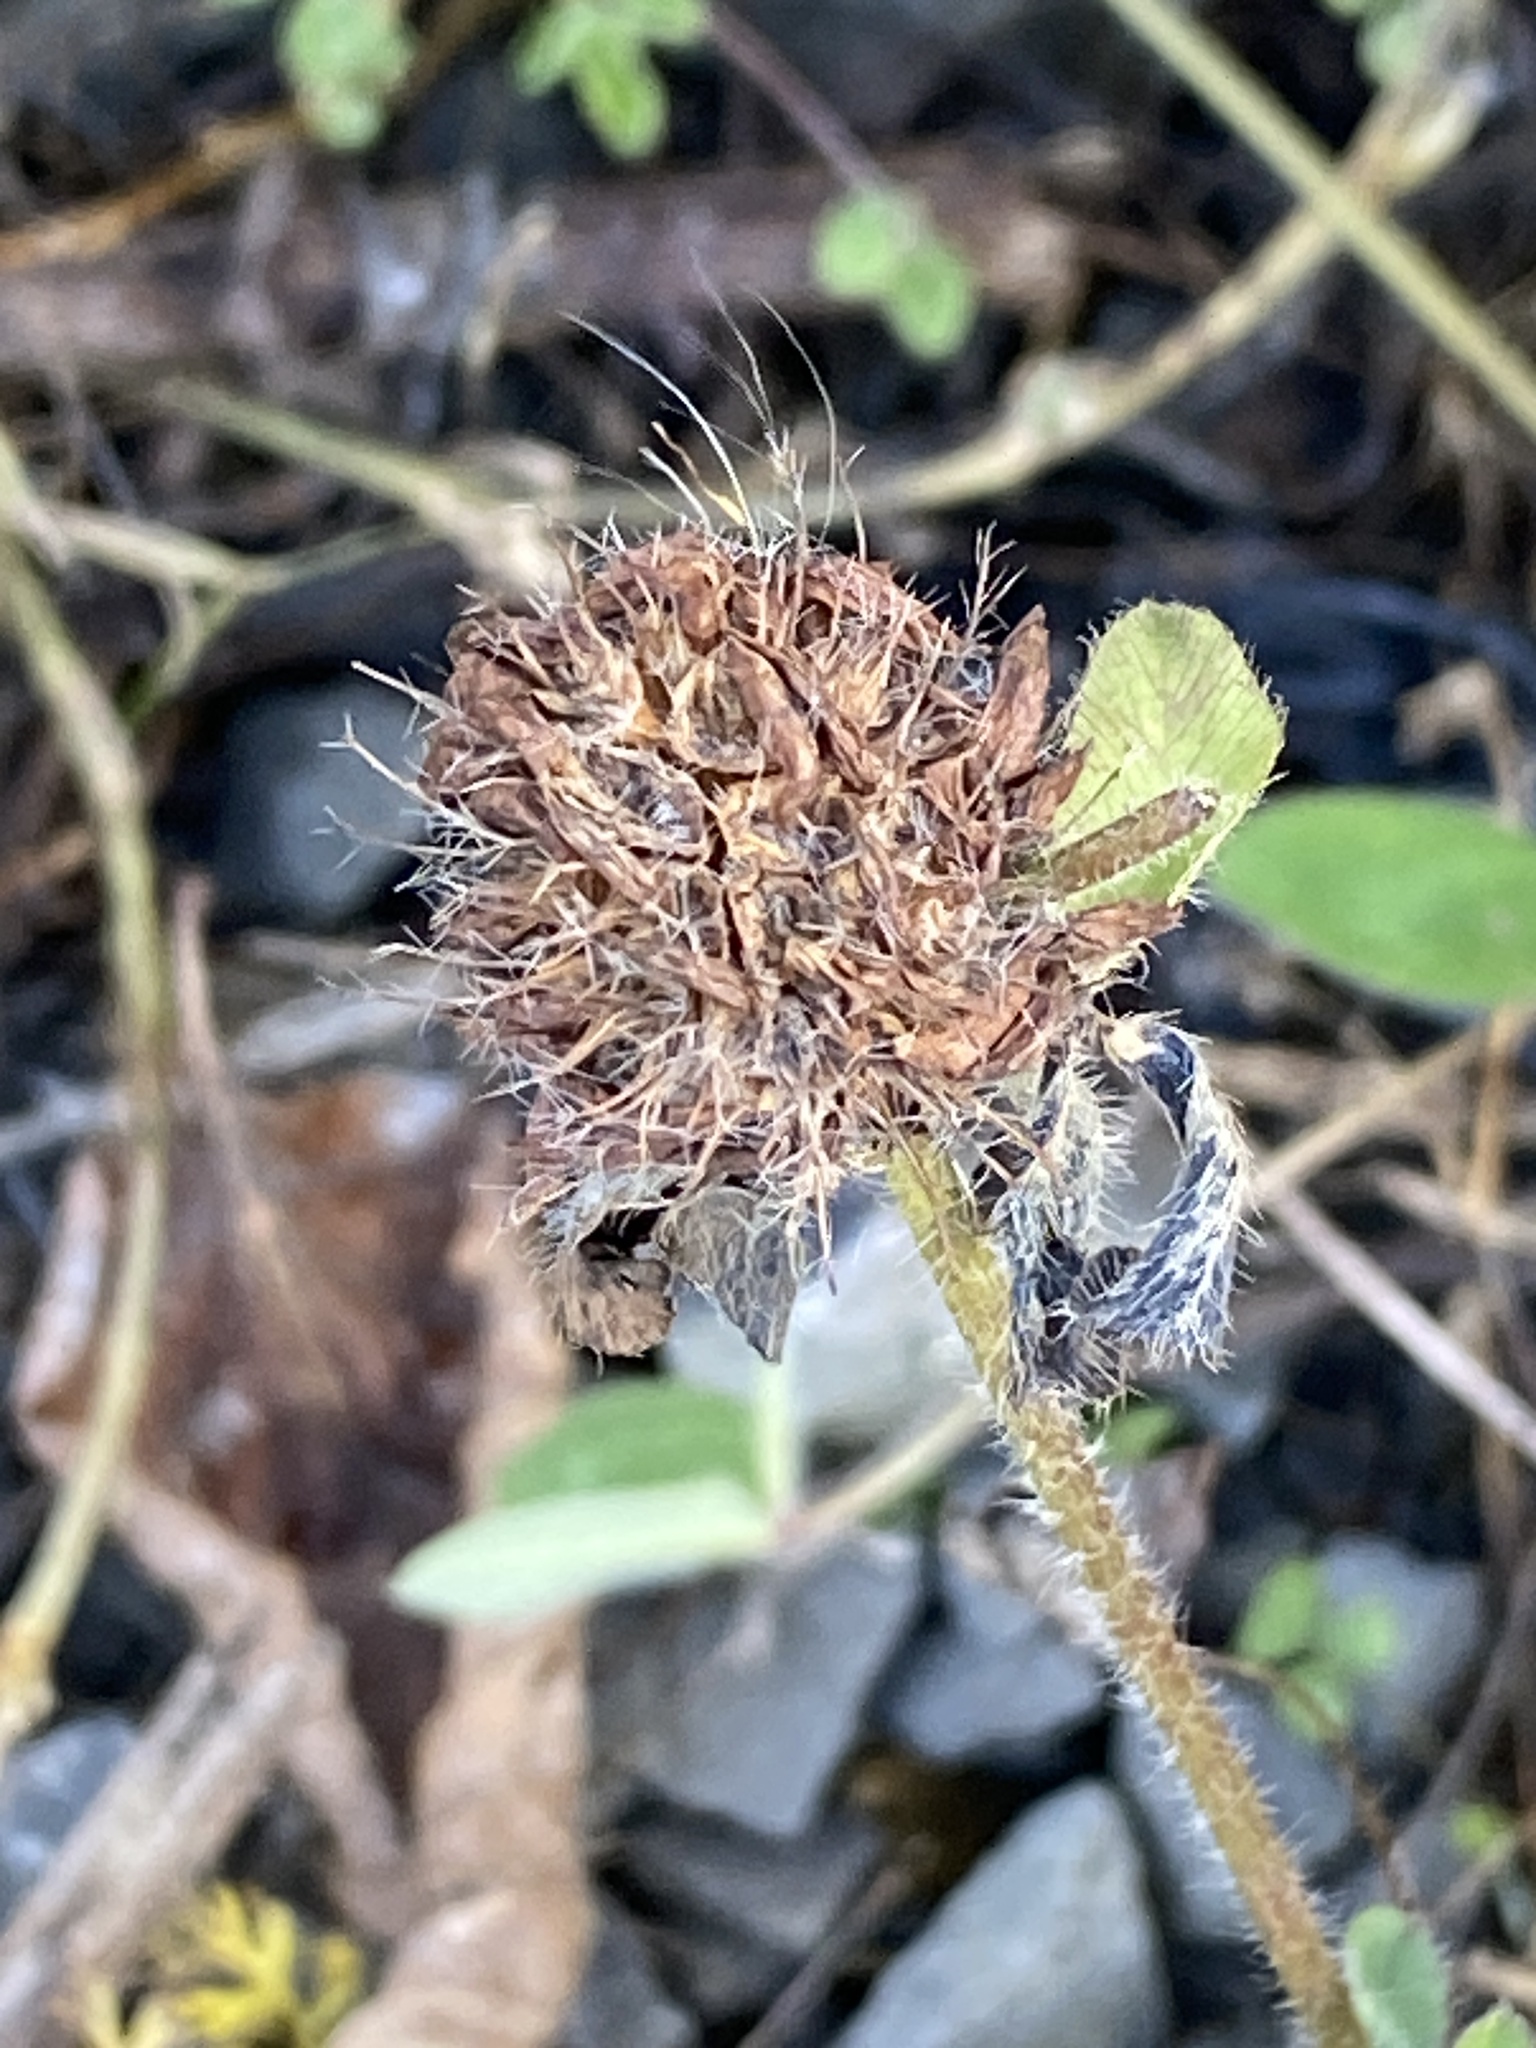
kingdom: Plantae
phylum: Tracheophyta
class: Magnoliopsida
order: Fabales
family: Fabaceae
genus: Trifolium
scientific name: Trifolium pratense
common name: Red clover
